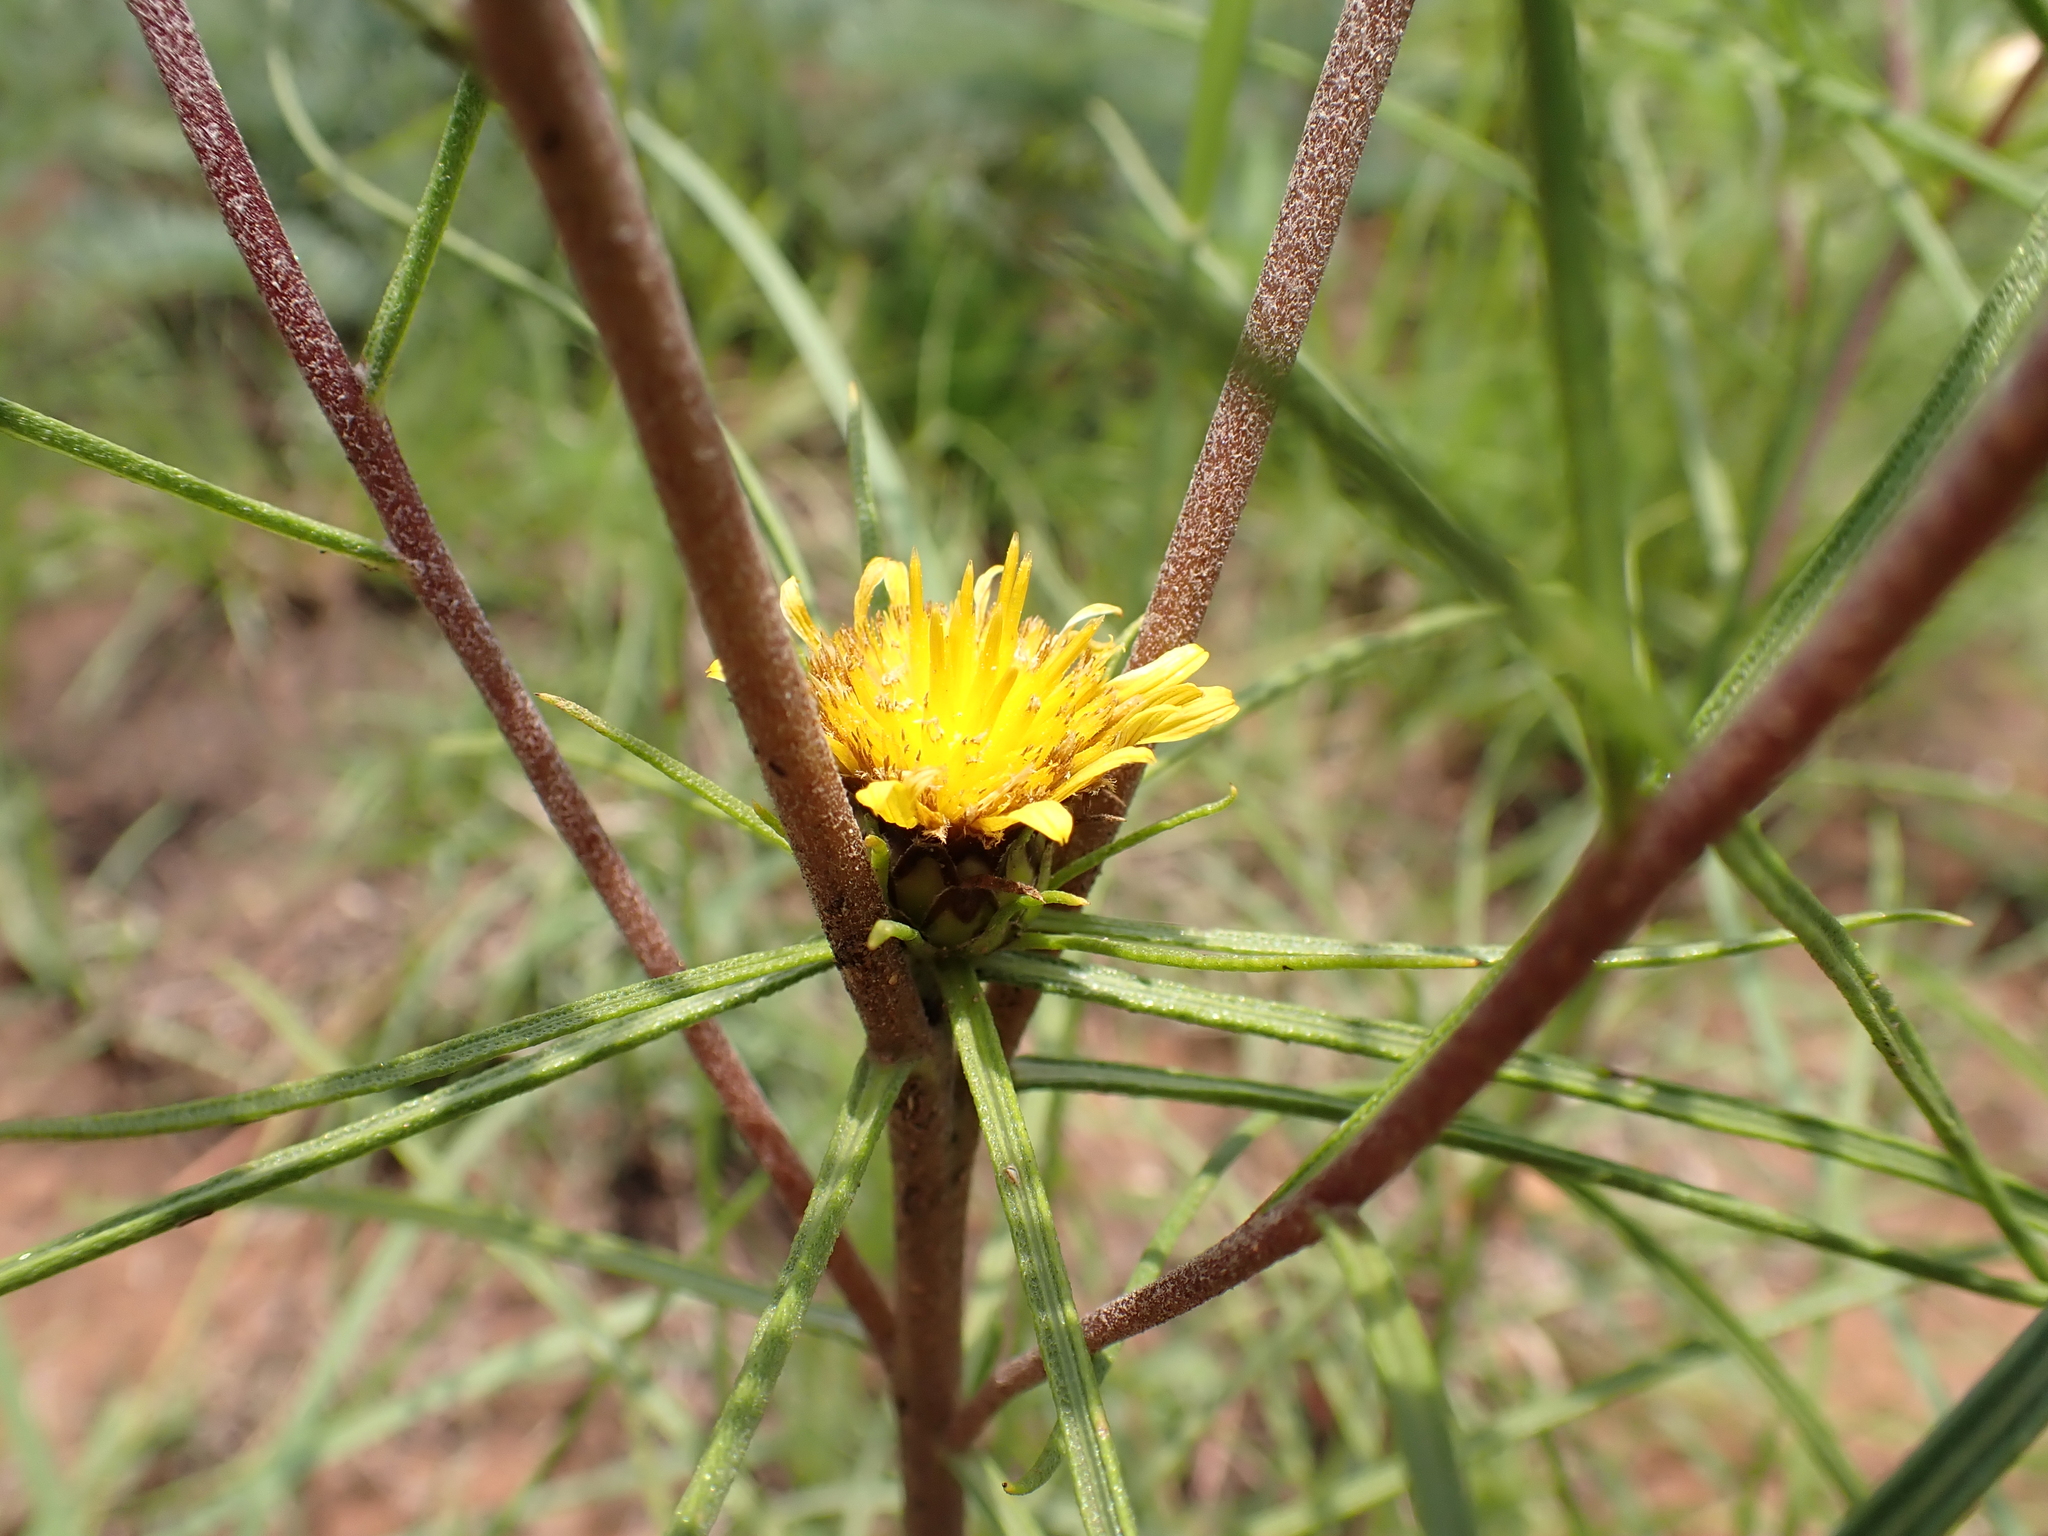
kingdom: Plantae
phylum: Tracheophyta
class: Magnoliopsida
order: Asterales
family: Asteraceae
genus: Geigeria
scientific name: Geigeria burkei
